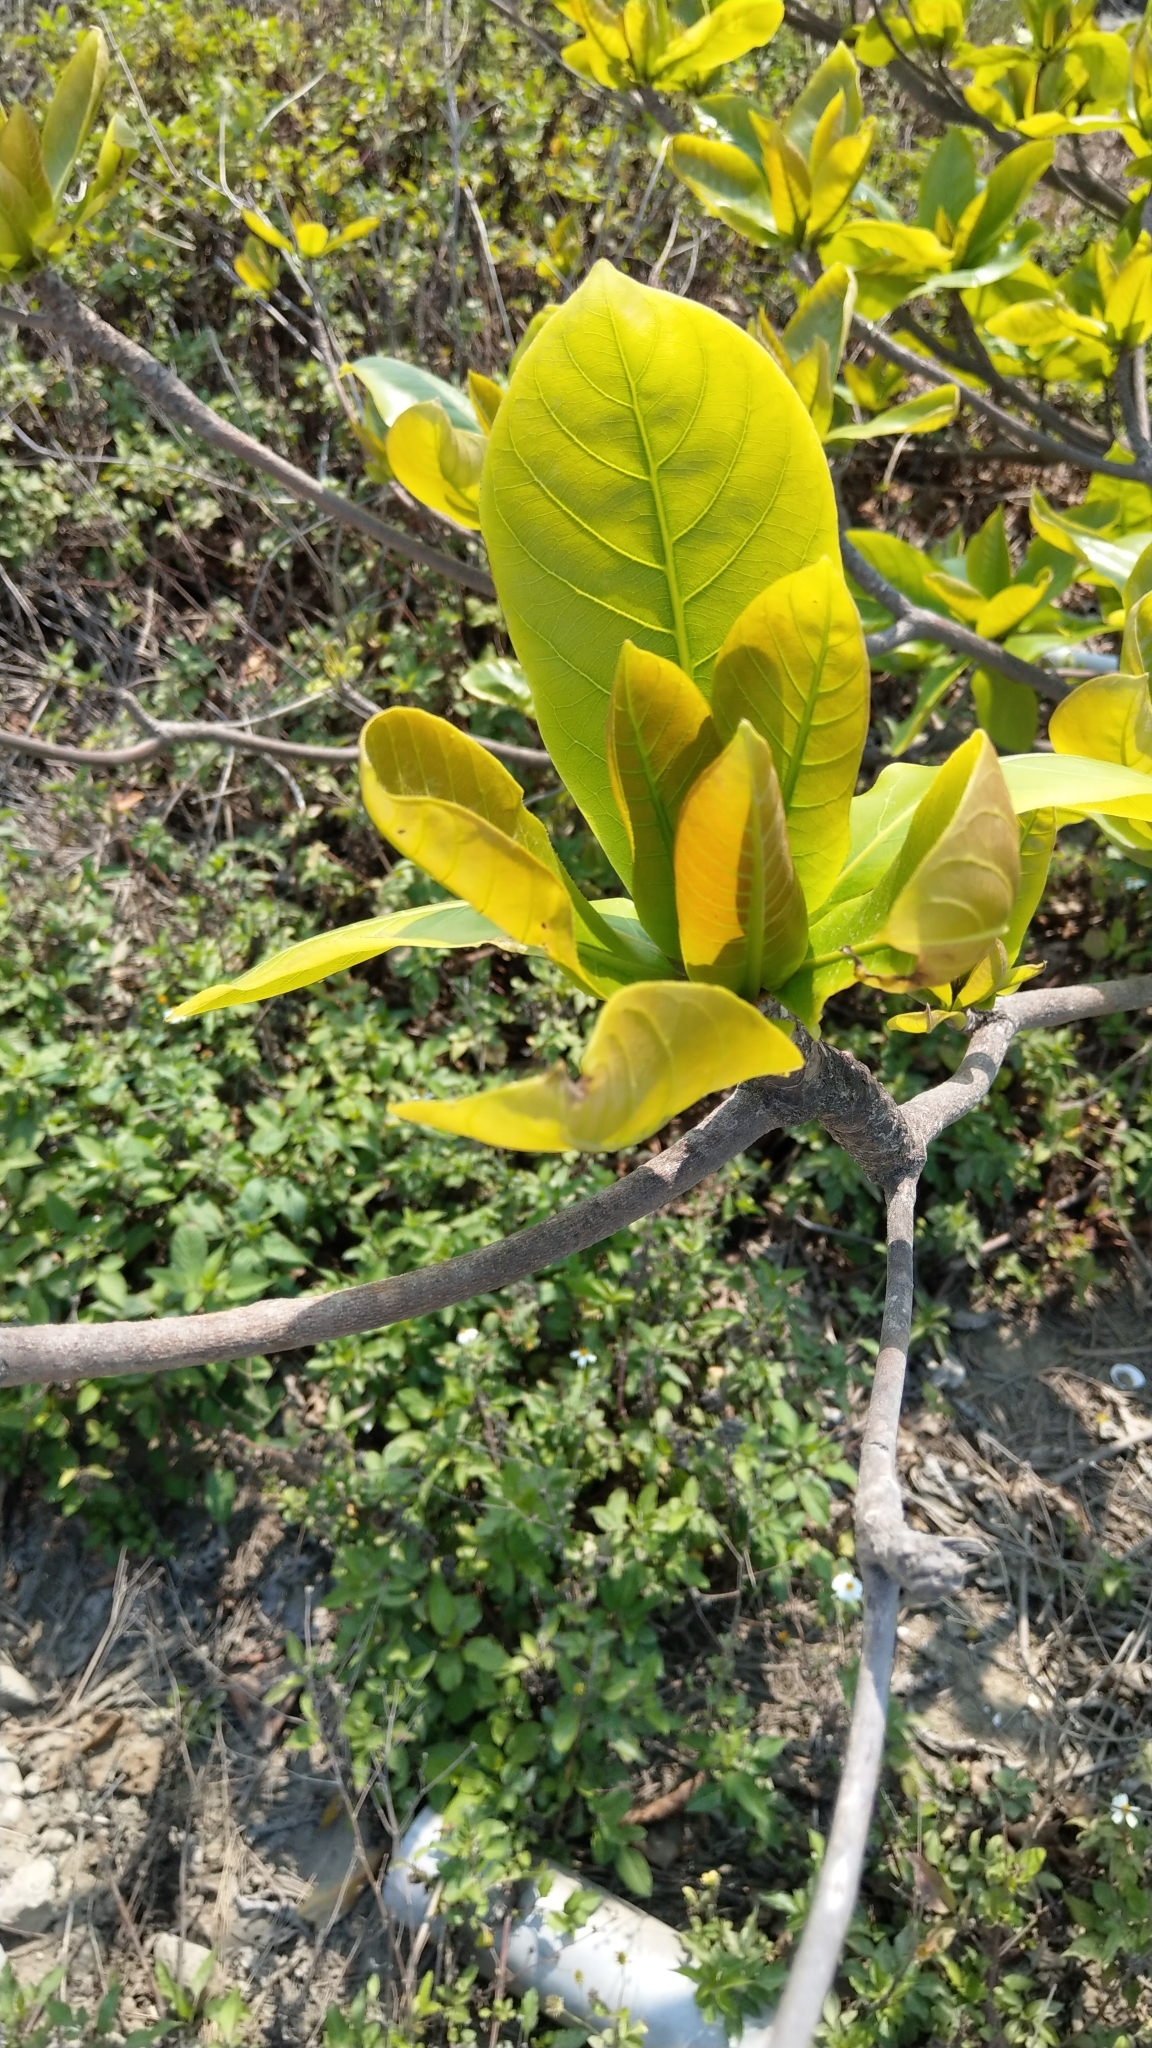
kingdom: Plantae
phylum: Tracheophyta
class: Magnoliopsida
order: Myrtales
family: Combretaceae
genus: Terminalia
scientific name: Terminalia catappa
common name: Tropical almond
